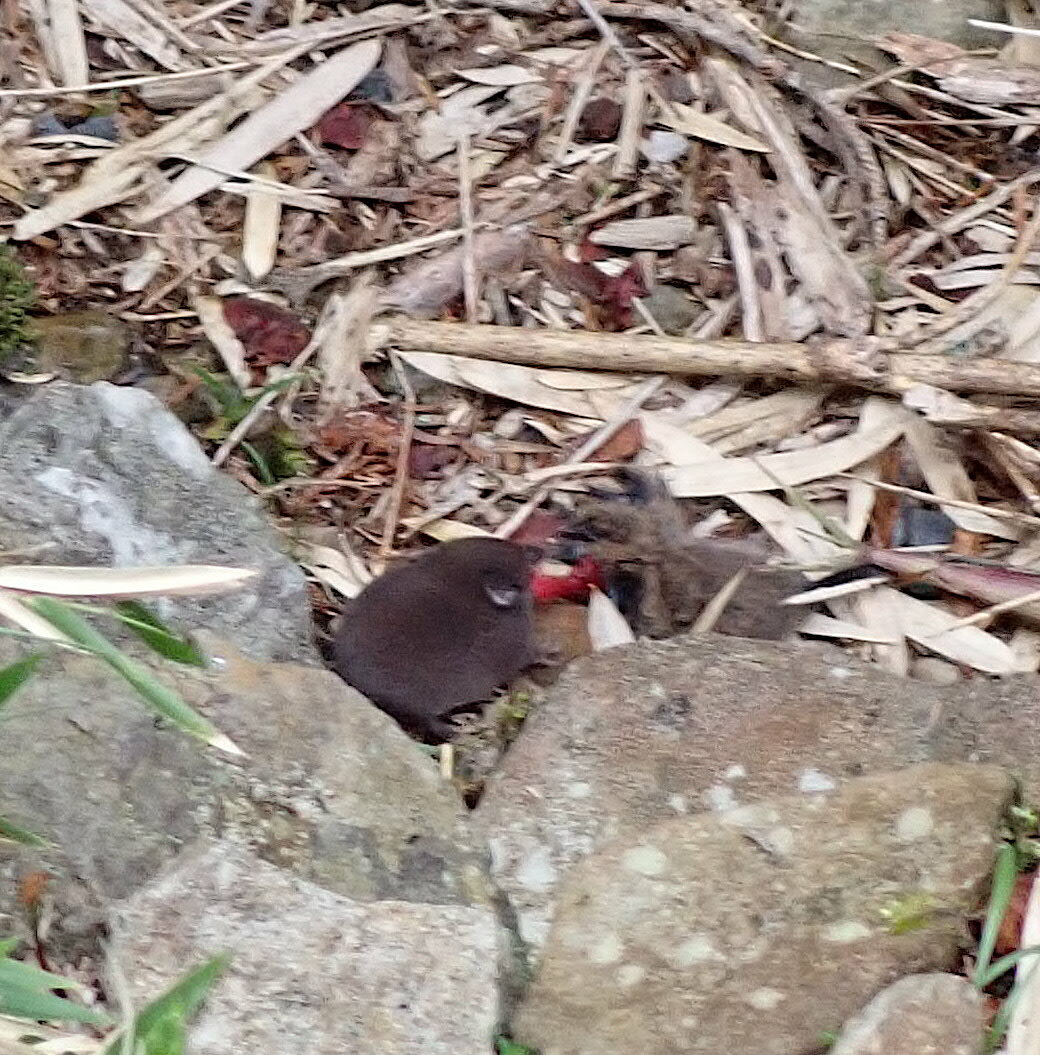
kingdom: Animalia
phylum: Chordata
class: Mammalia
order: Soricomorpha
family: Soricidae
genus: Pseudosoriculus
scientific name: Pseudosoriculus
